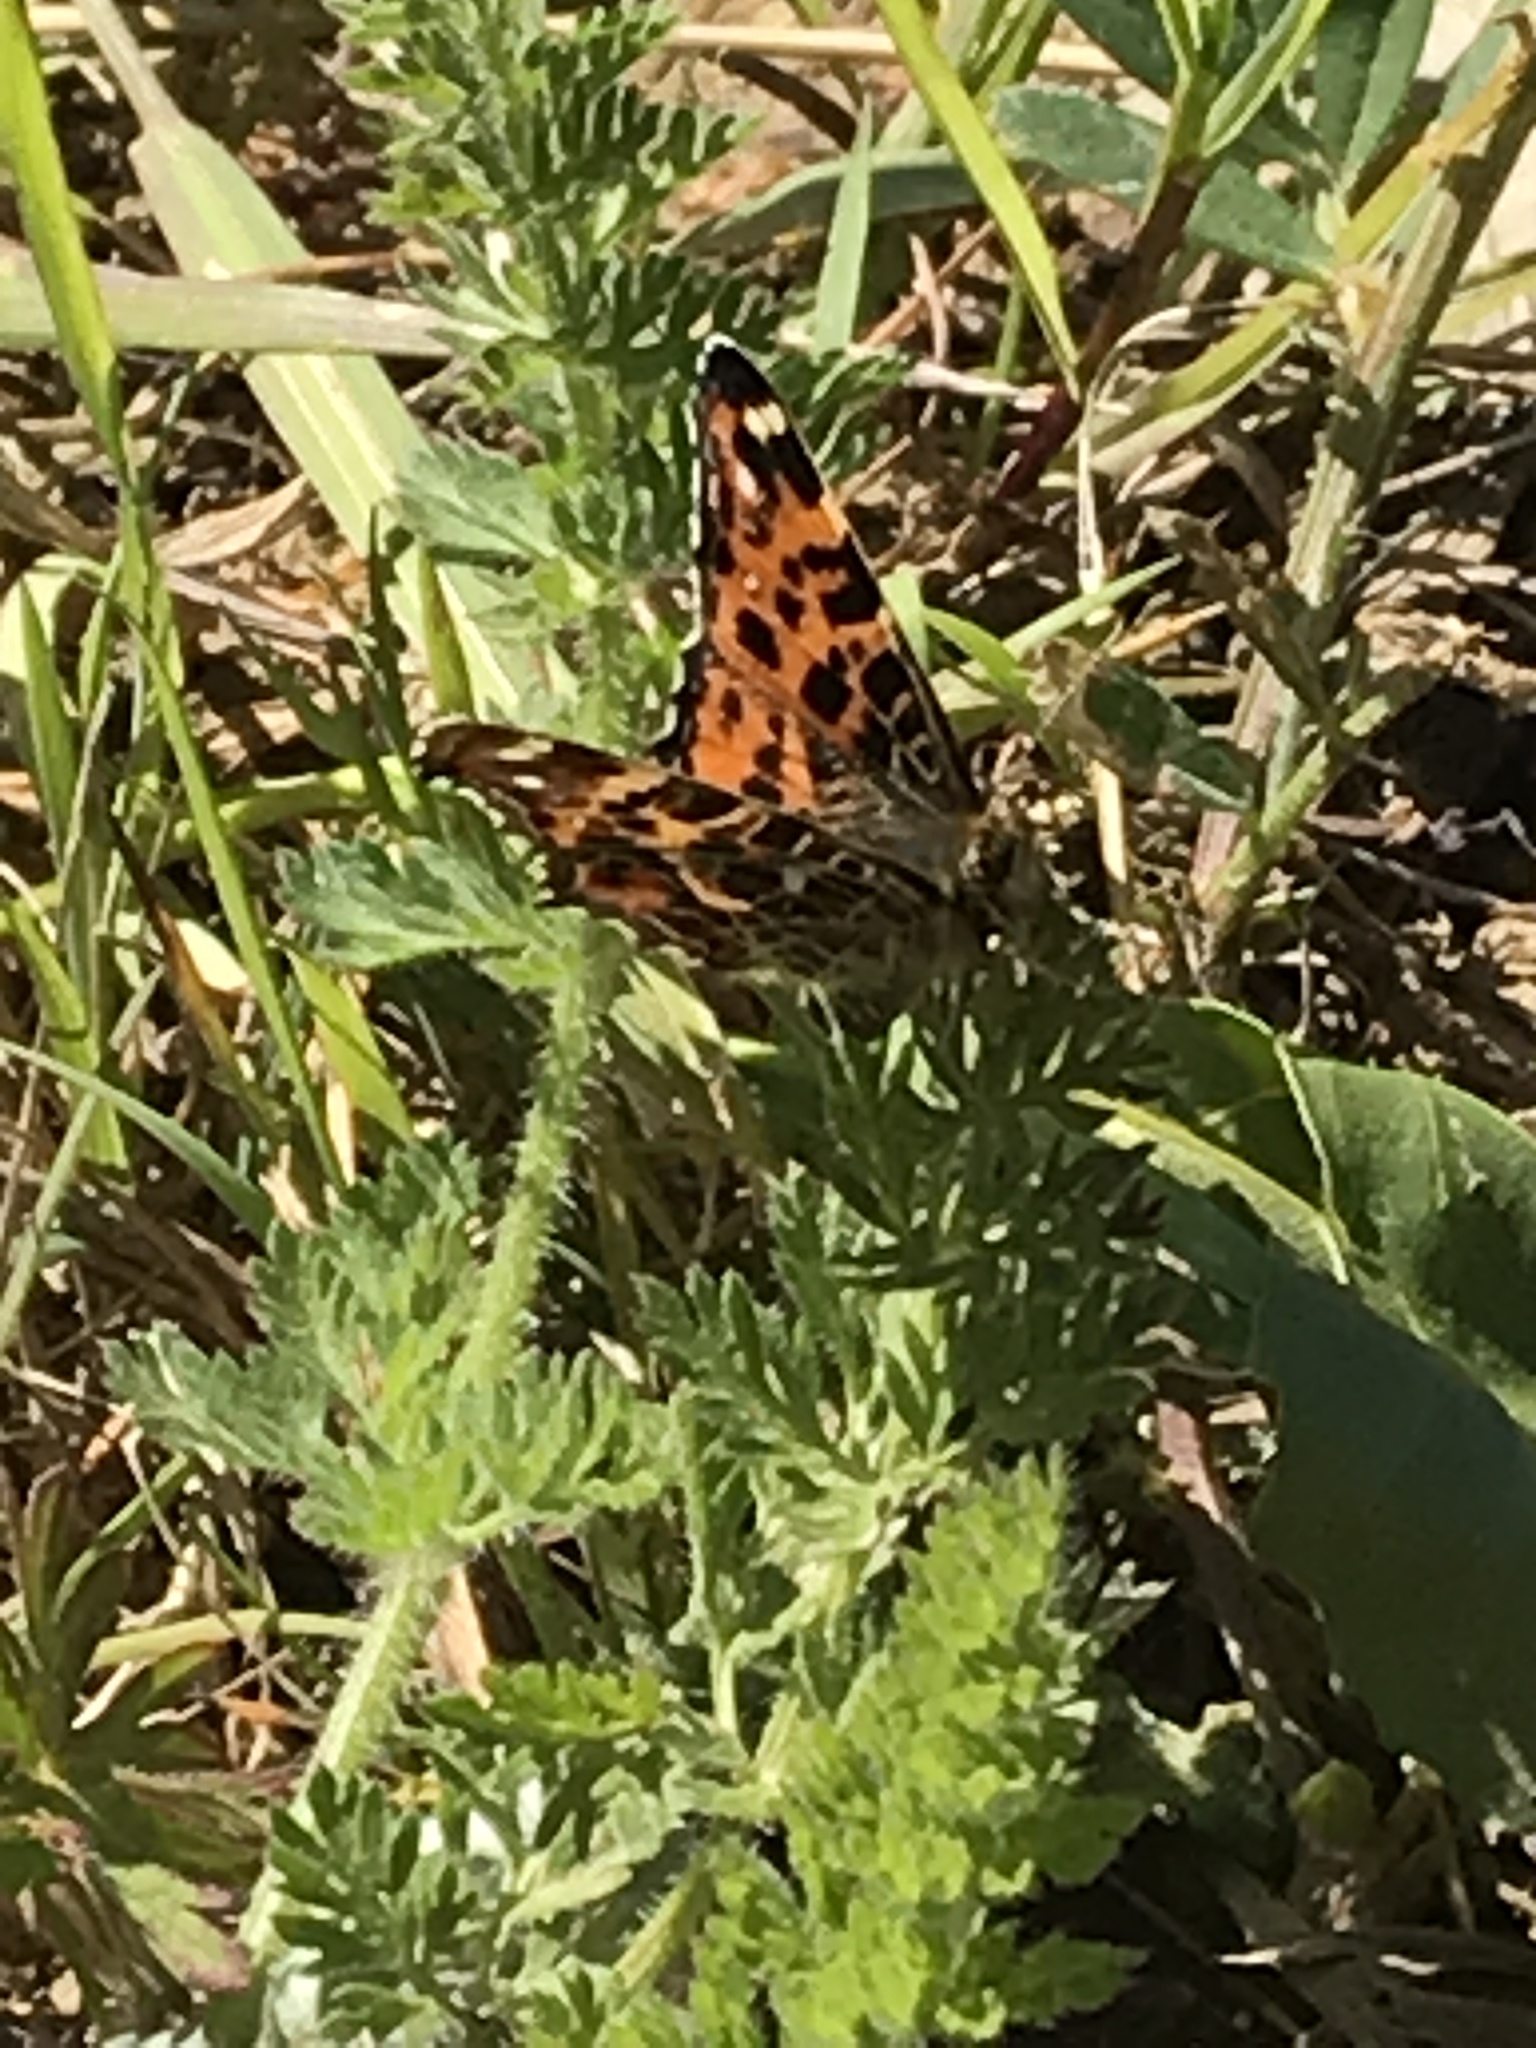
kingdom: Animalia
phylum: Arthropoda
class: Insecta
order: Lepidoptera
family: Nymphalidae
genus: Araschnia
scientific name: Araschnia levana
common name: Map butterfly
